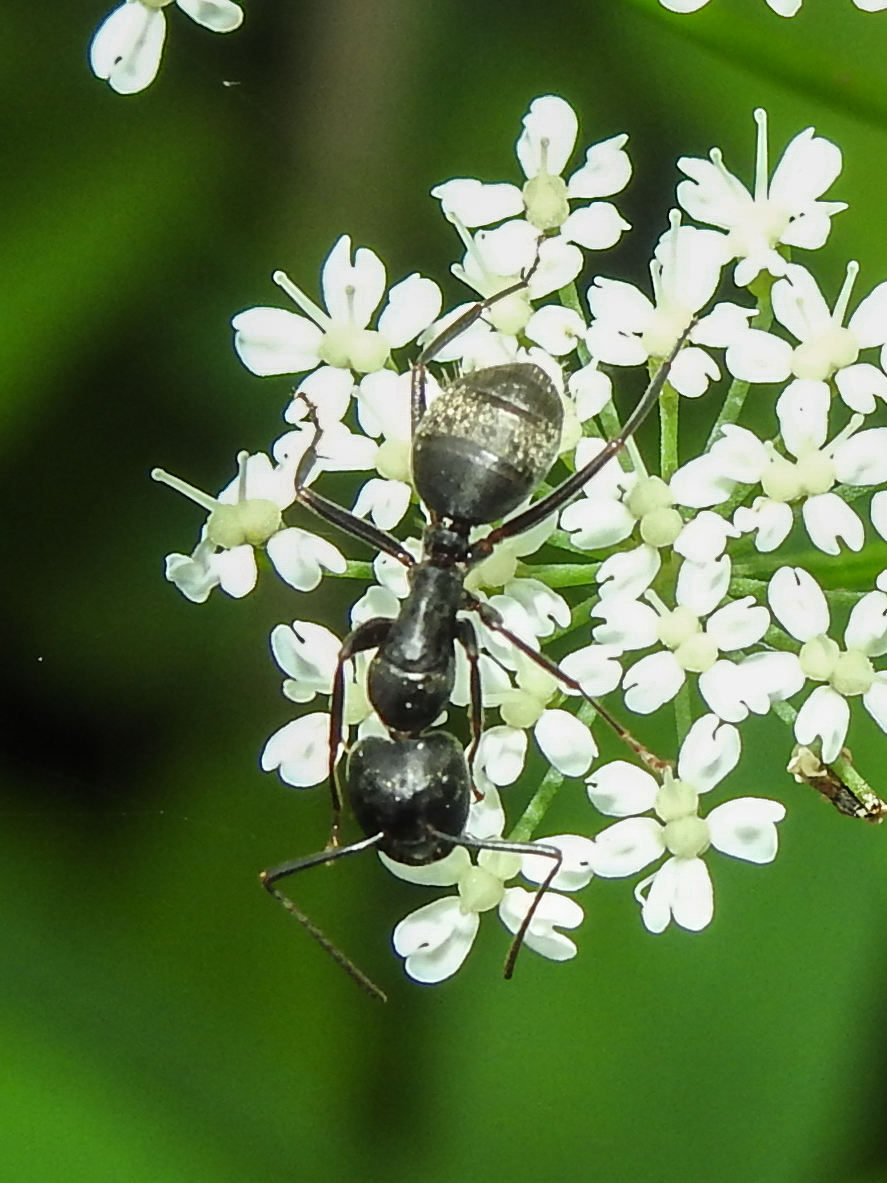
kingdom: Animalia
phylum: Arthropoda
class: Insecta
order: Hymenoptera
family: Formicidae
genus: Camponotus
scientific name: Camponotus pennsylvanicus
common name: Black carpenter ant
